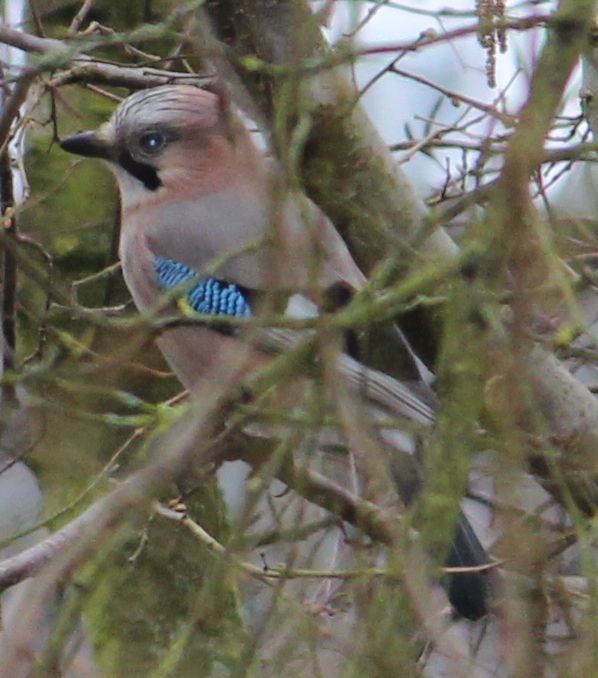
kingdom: Animalia
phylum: Chordata
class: Aves
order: Passeriformes
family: Corvidae
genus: Garrulus
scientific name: Garrulus glandarius
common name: Eurasian jay
